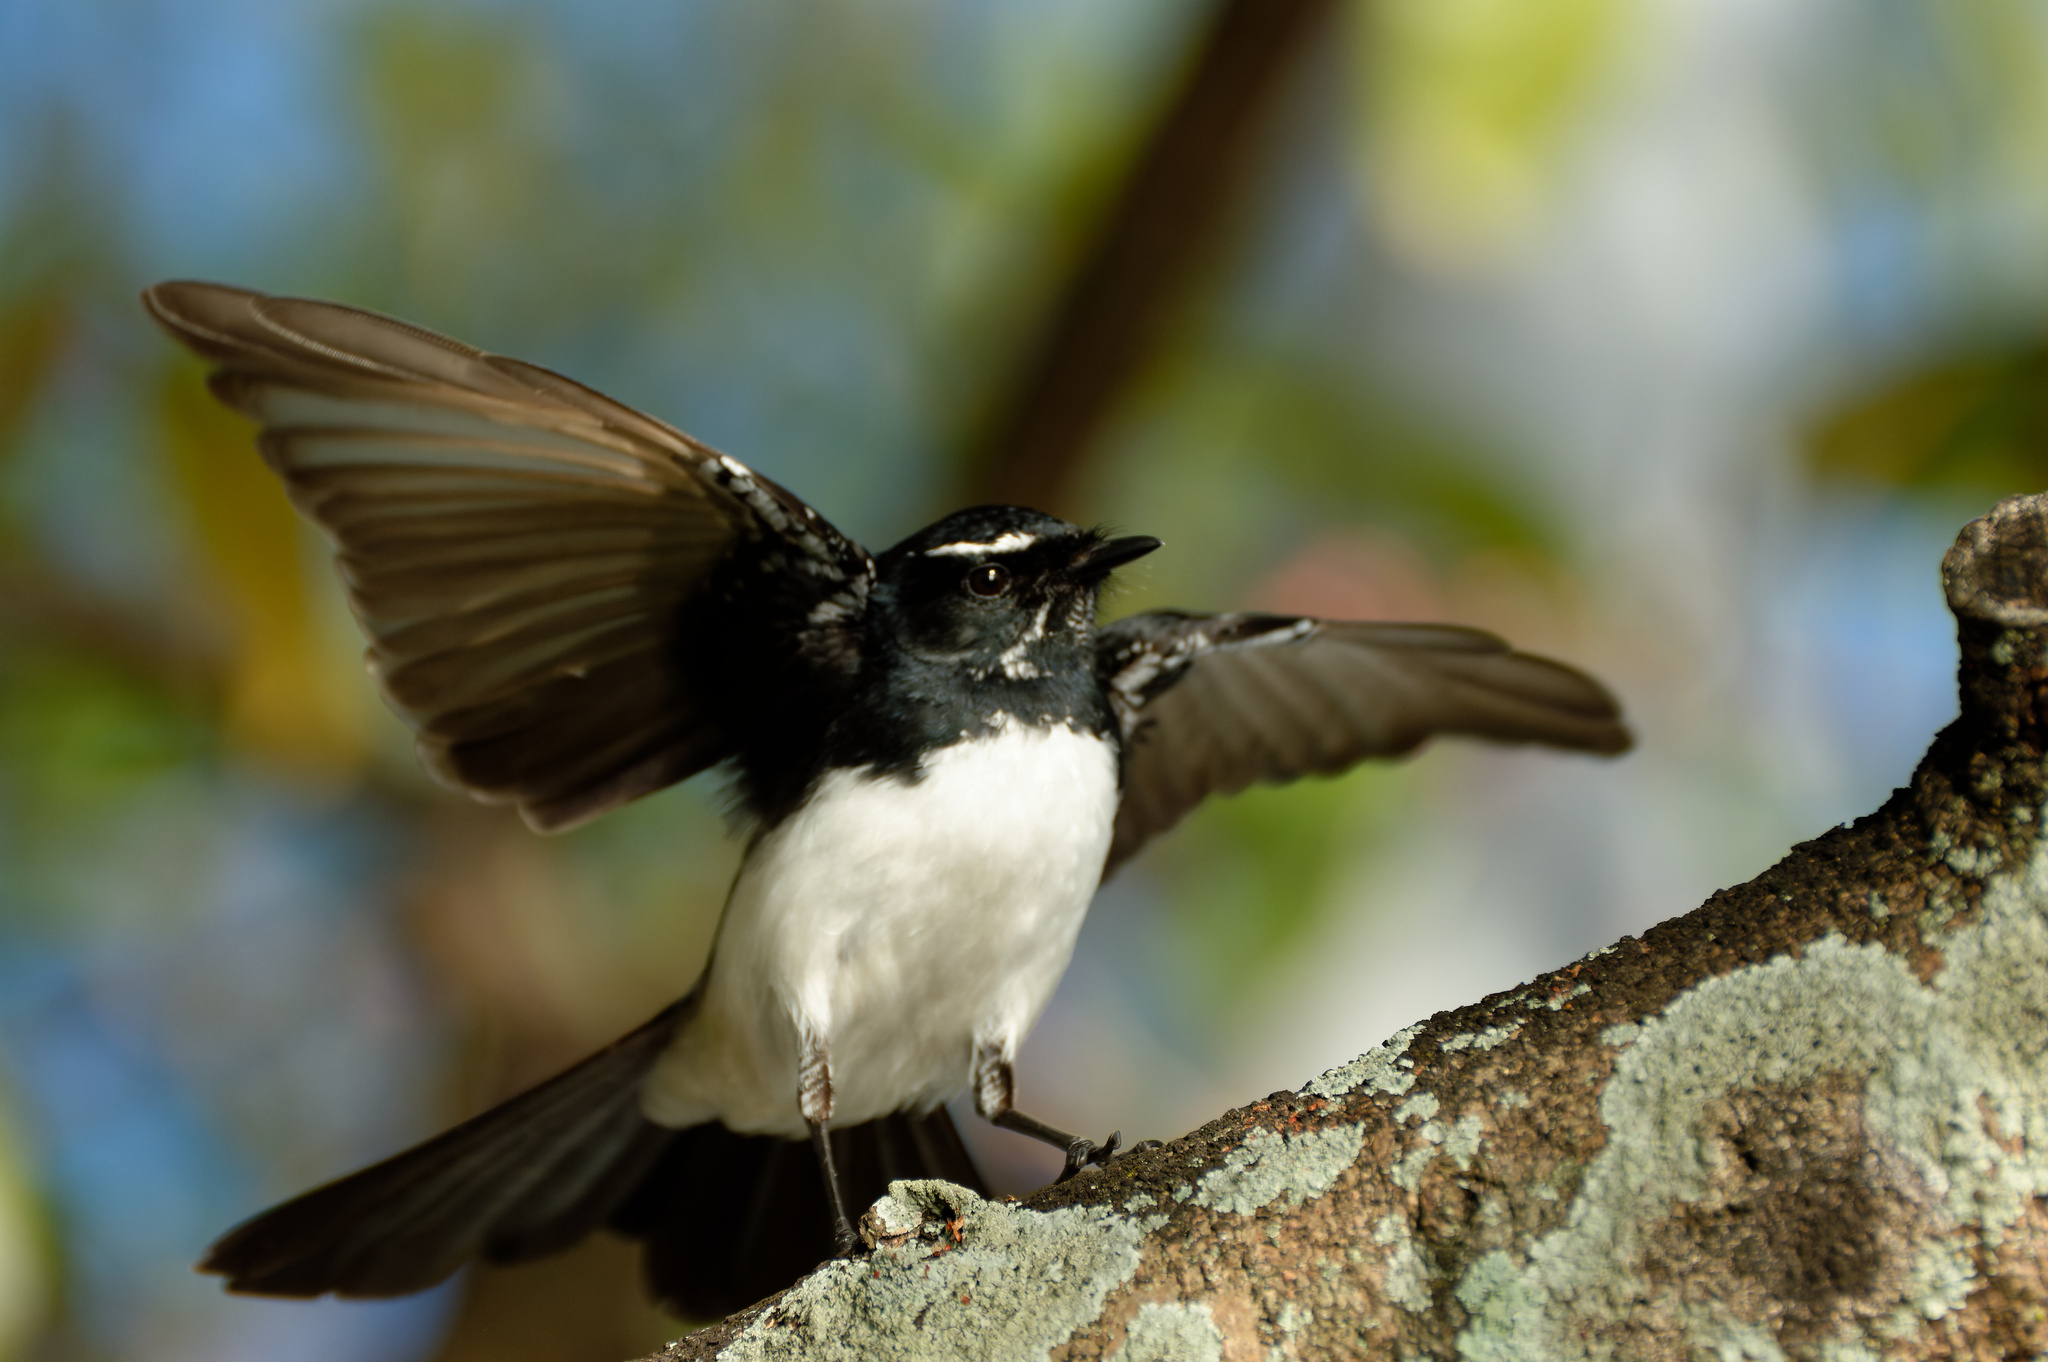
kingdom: Animalia
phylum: Chordata
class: Aves
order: Passeriformes
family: Rhipiduridae
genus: Rhipidura
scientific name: Rhipidura leucophrys
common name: Willie wagtail
